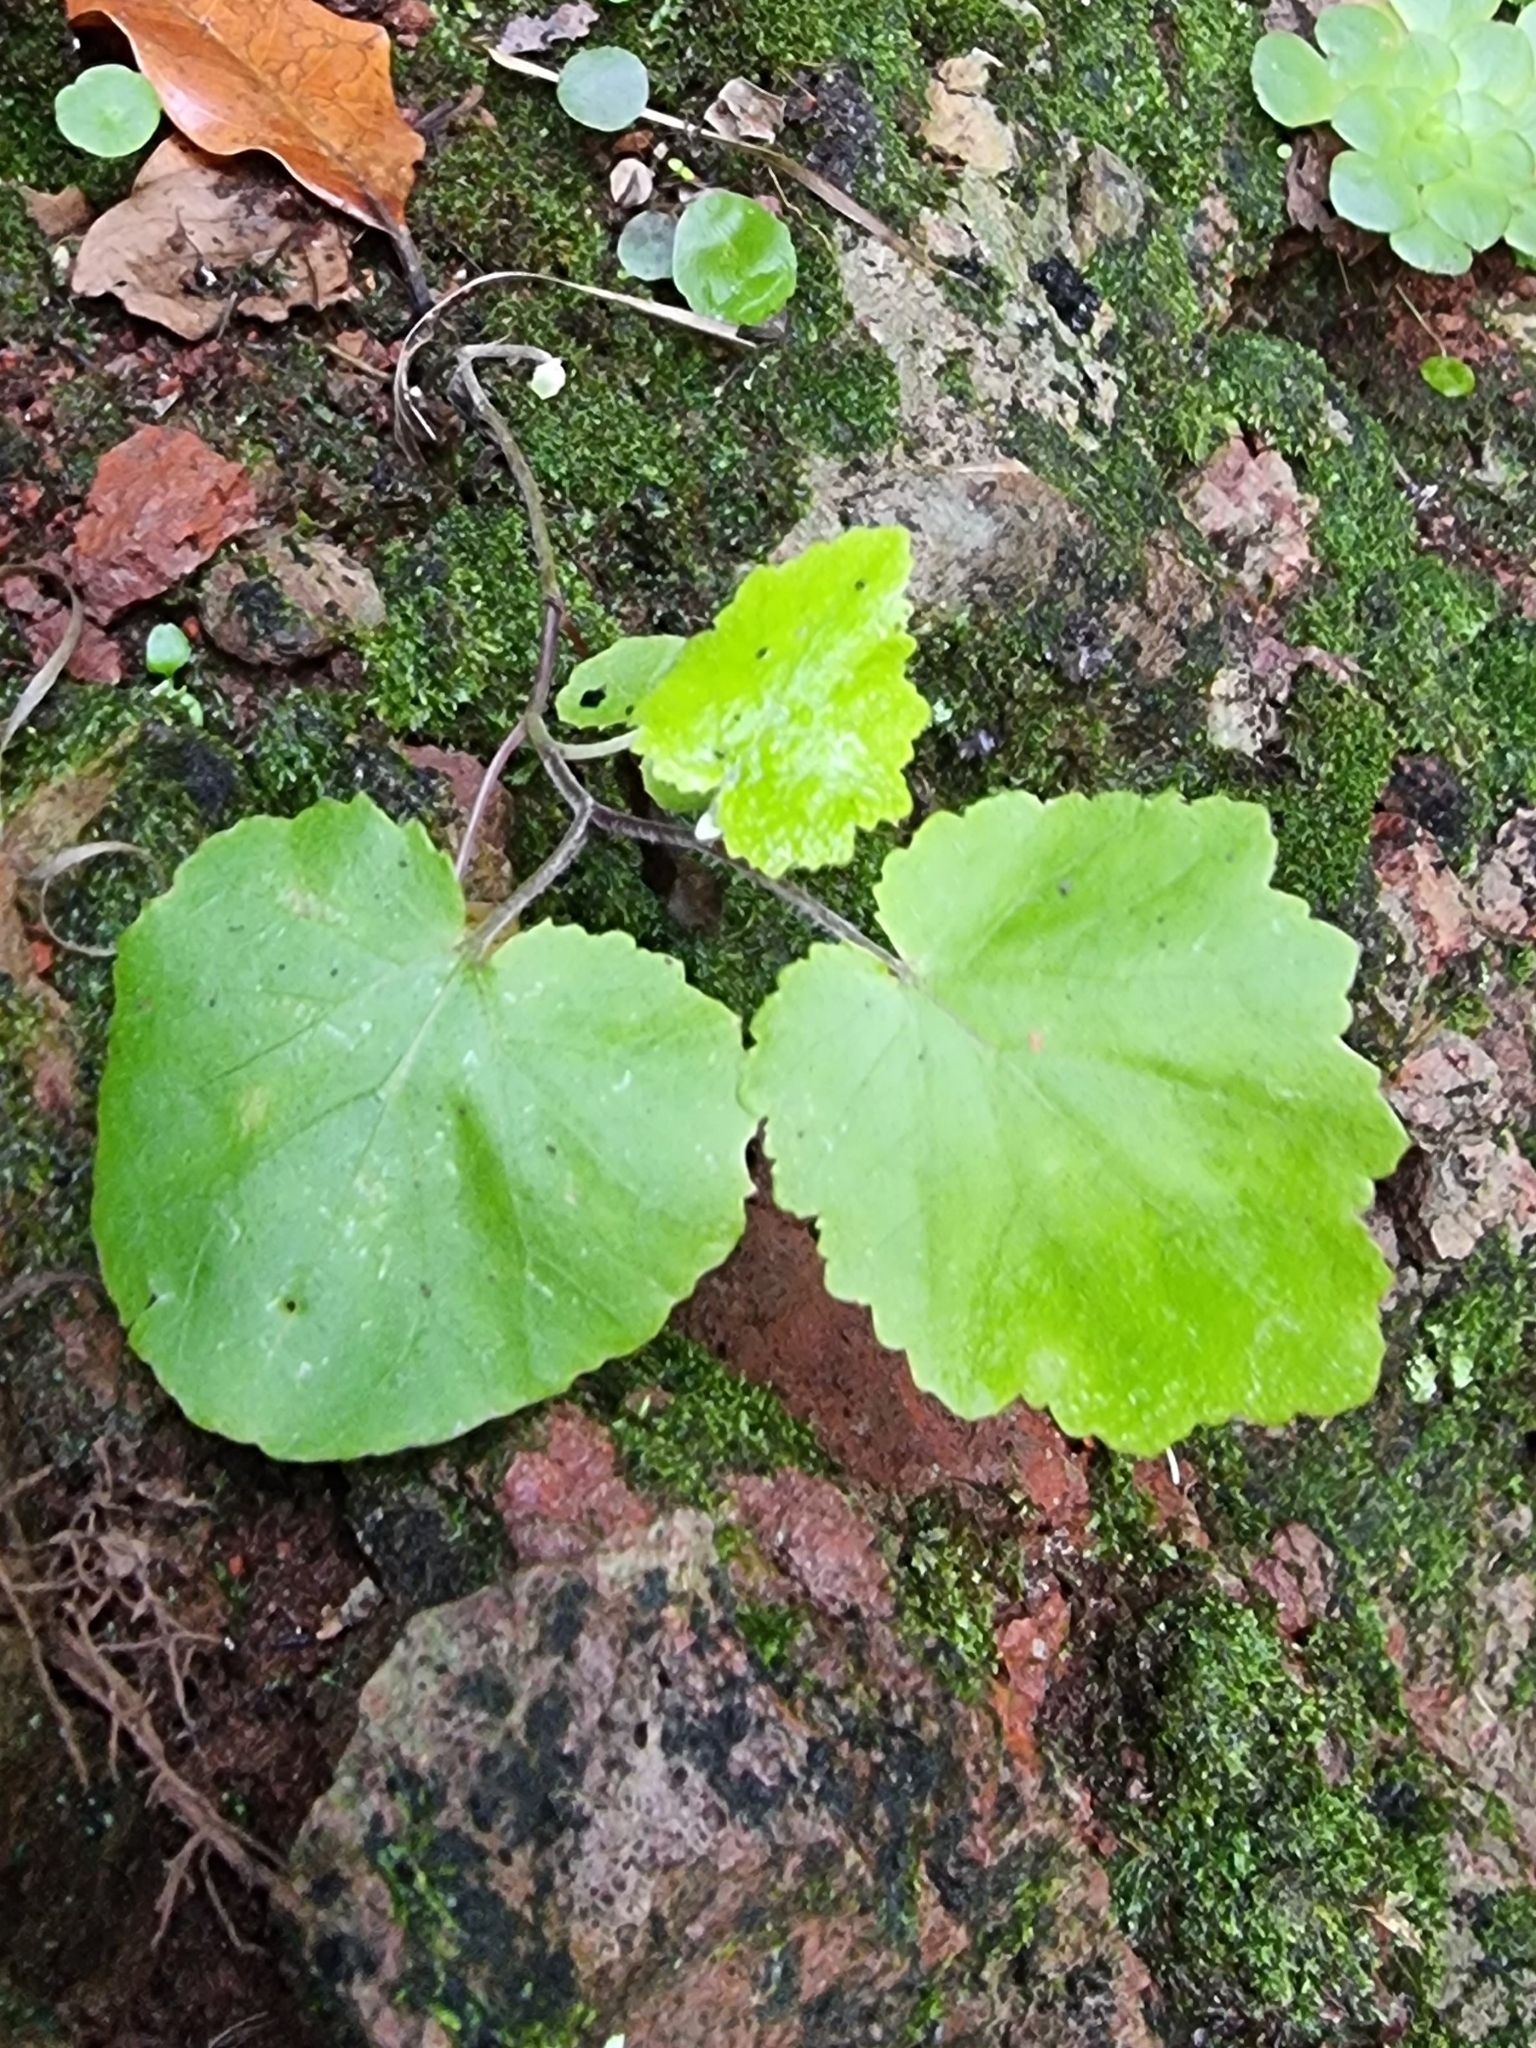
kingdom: Plantae
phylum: Tracheophyta
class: Magnoliopsida
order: Asterales
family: Asteraceae
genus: Pericallis
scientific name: Pericallis aurita
